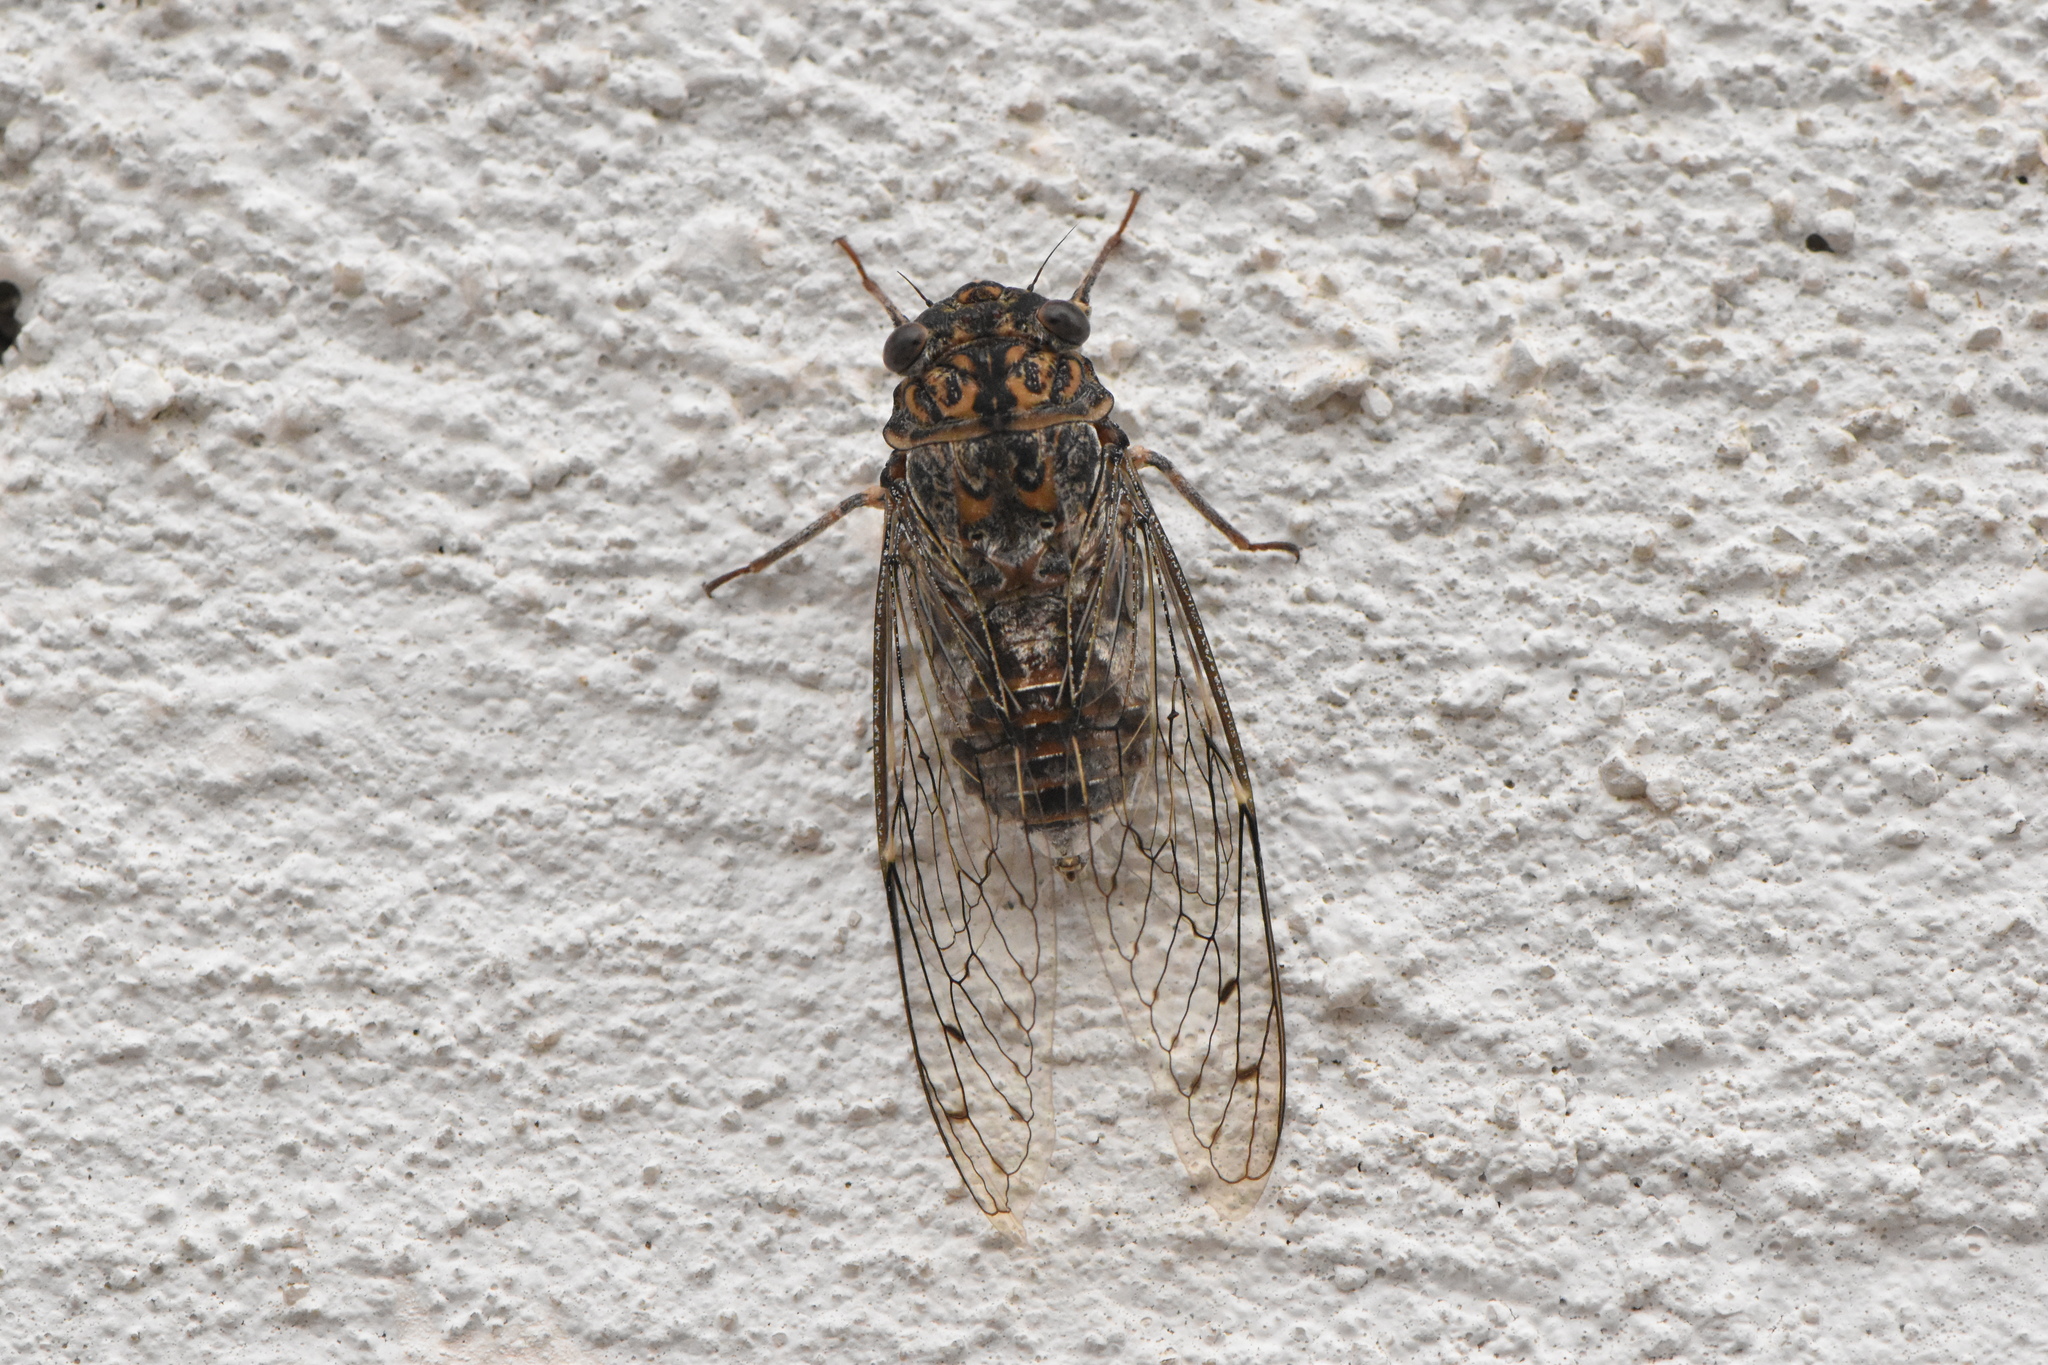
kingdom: Animalia
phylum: Arthropoda
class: Insecta
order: Hemiptera
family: Cicadidae
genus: Cicada
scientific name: Cicada barbara
